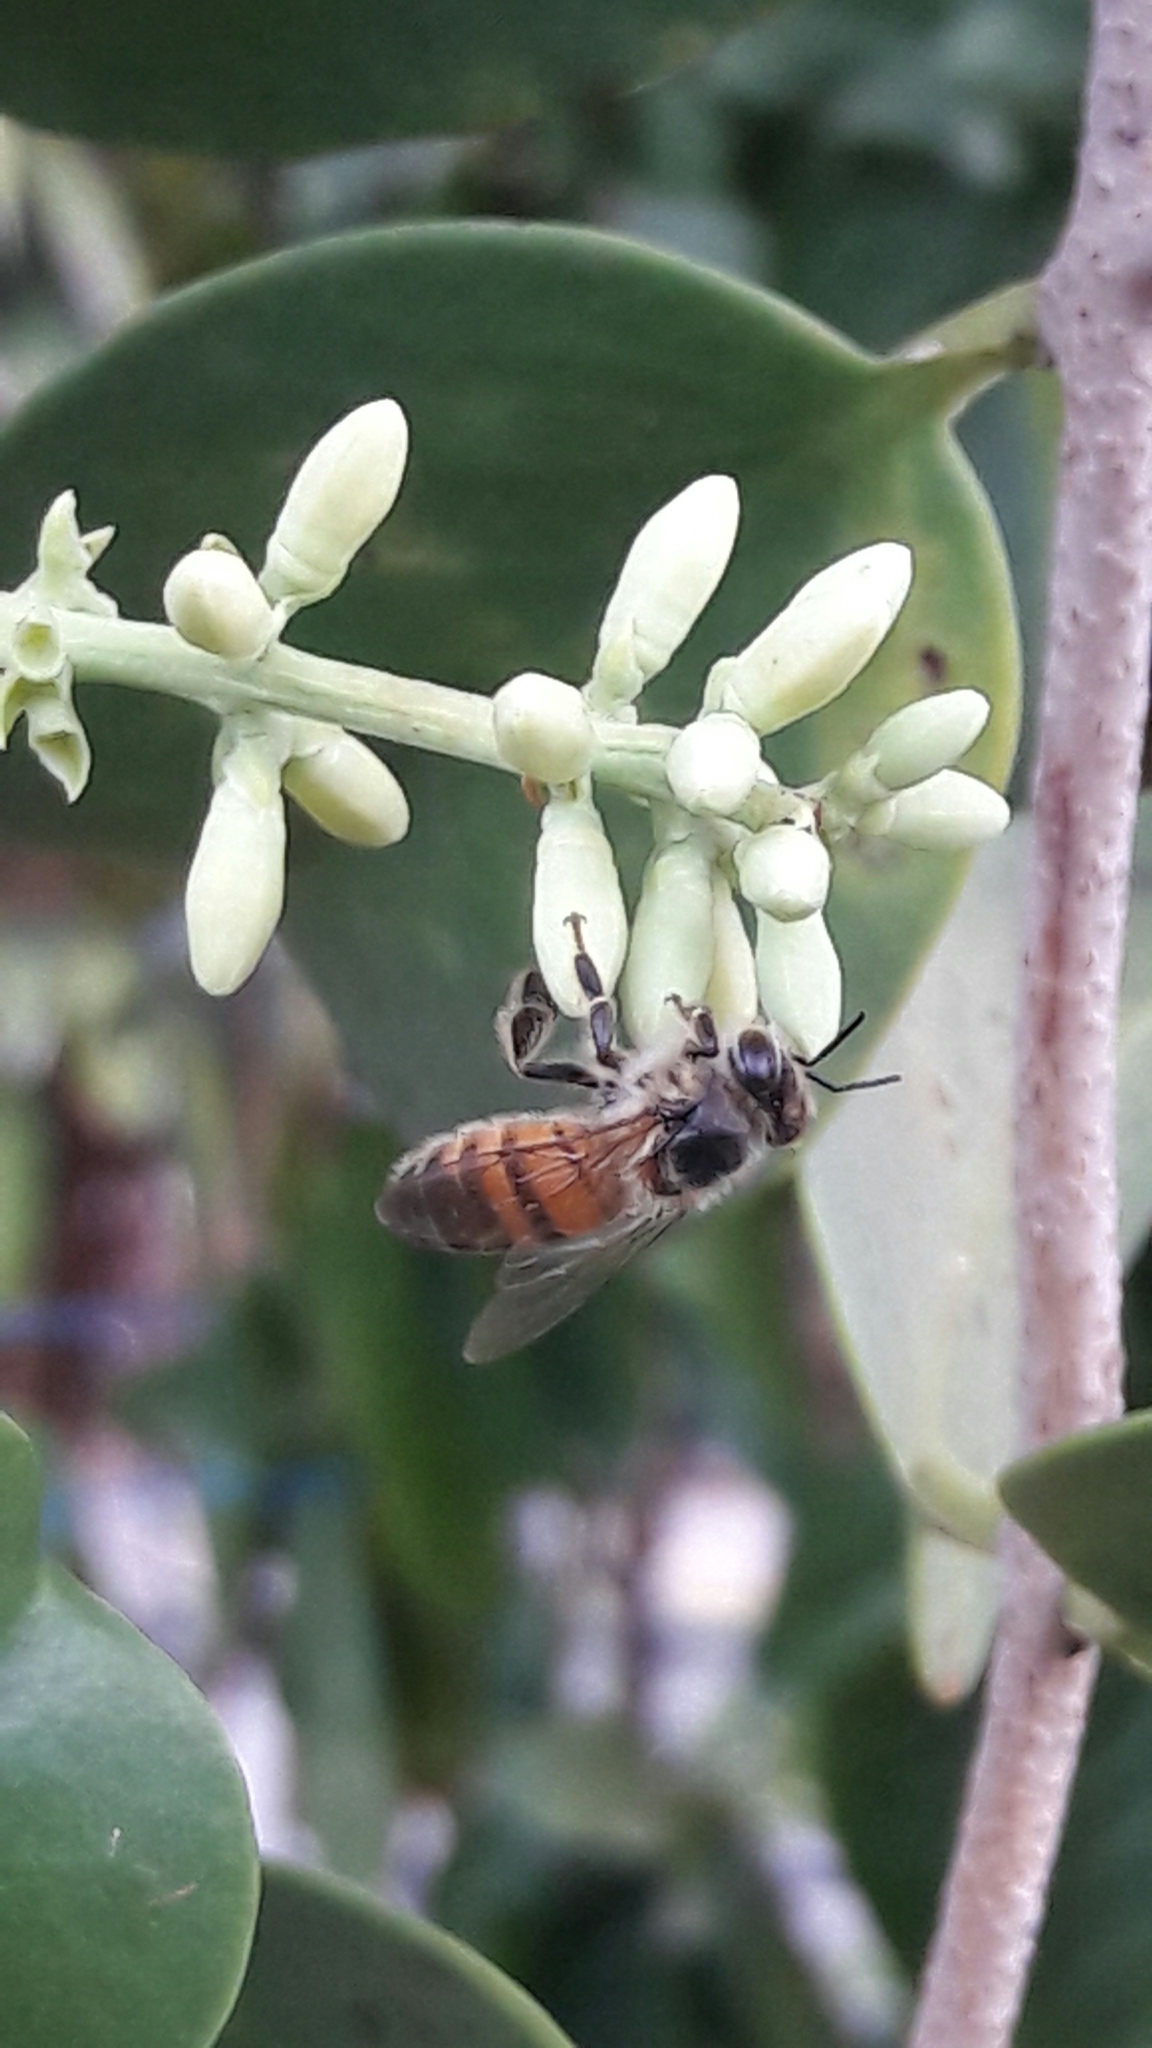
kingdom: Animalia
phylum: Arthropoda
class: Insecta
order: Hymenoptera
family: Apidae
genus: Apis
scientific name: Apis mellifera
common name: Honey bee
